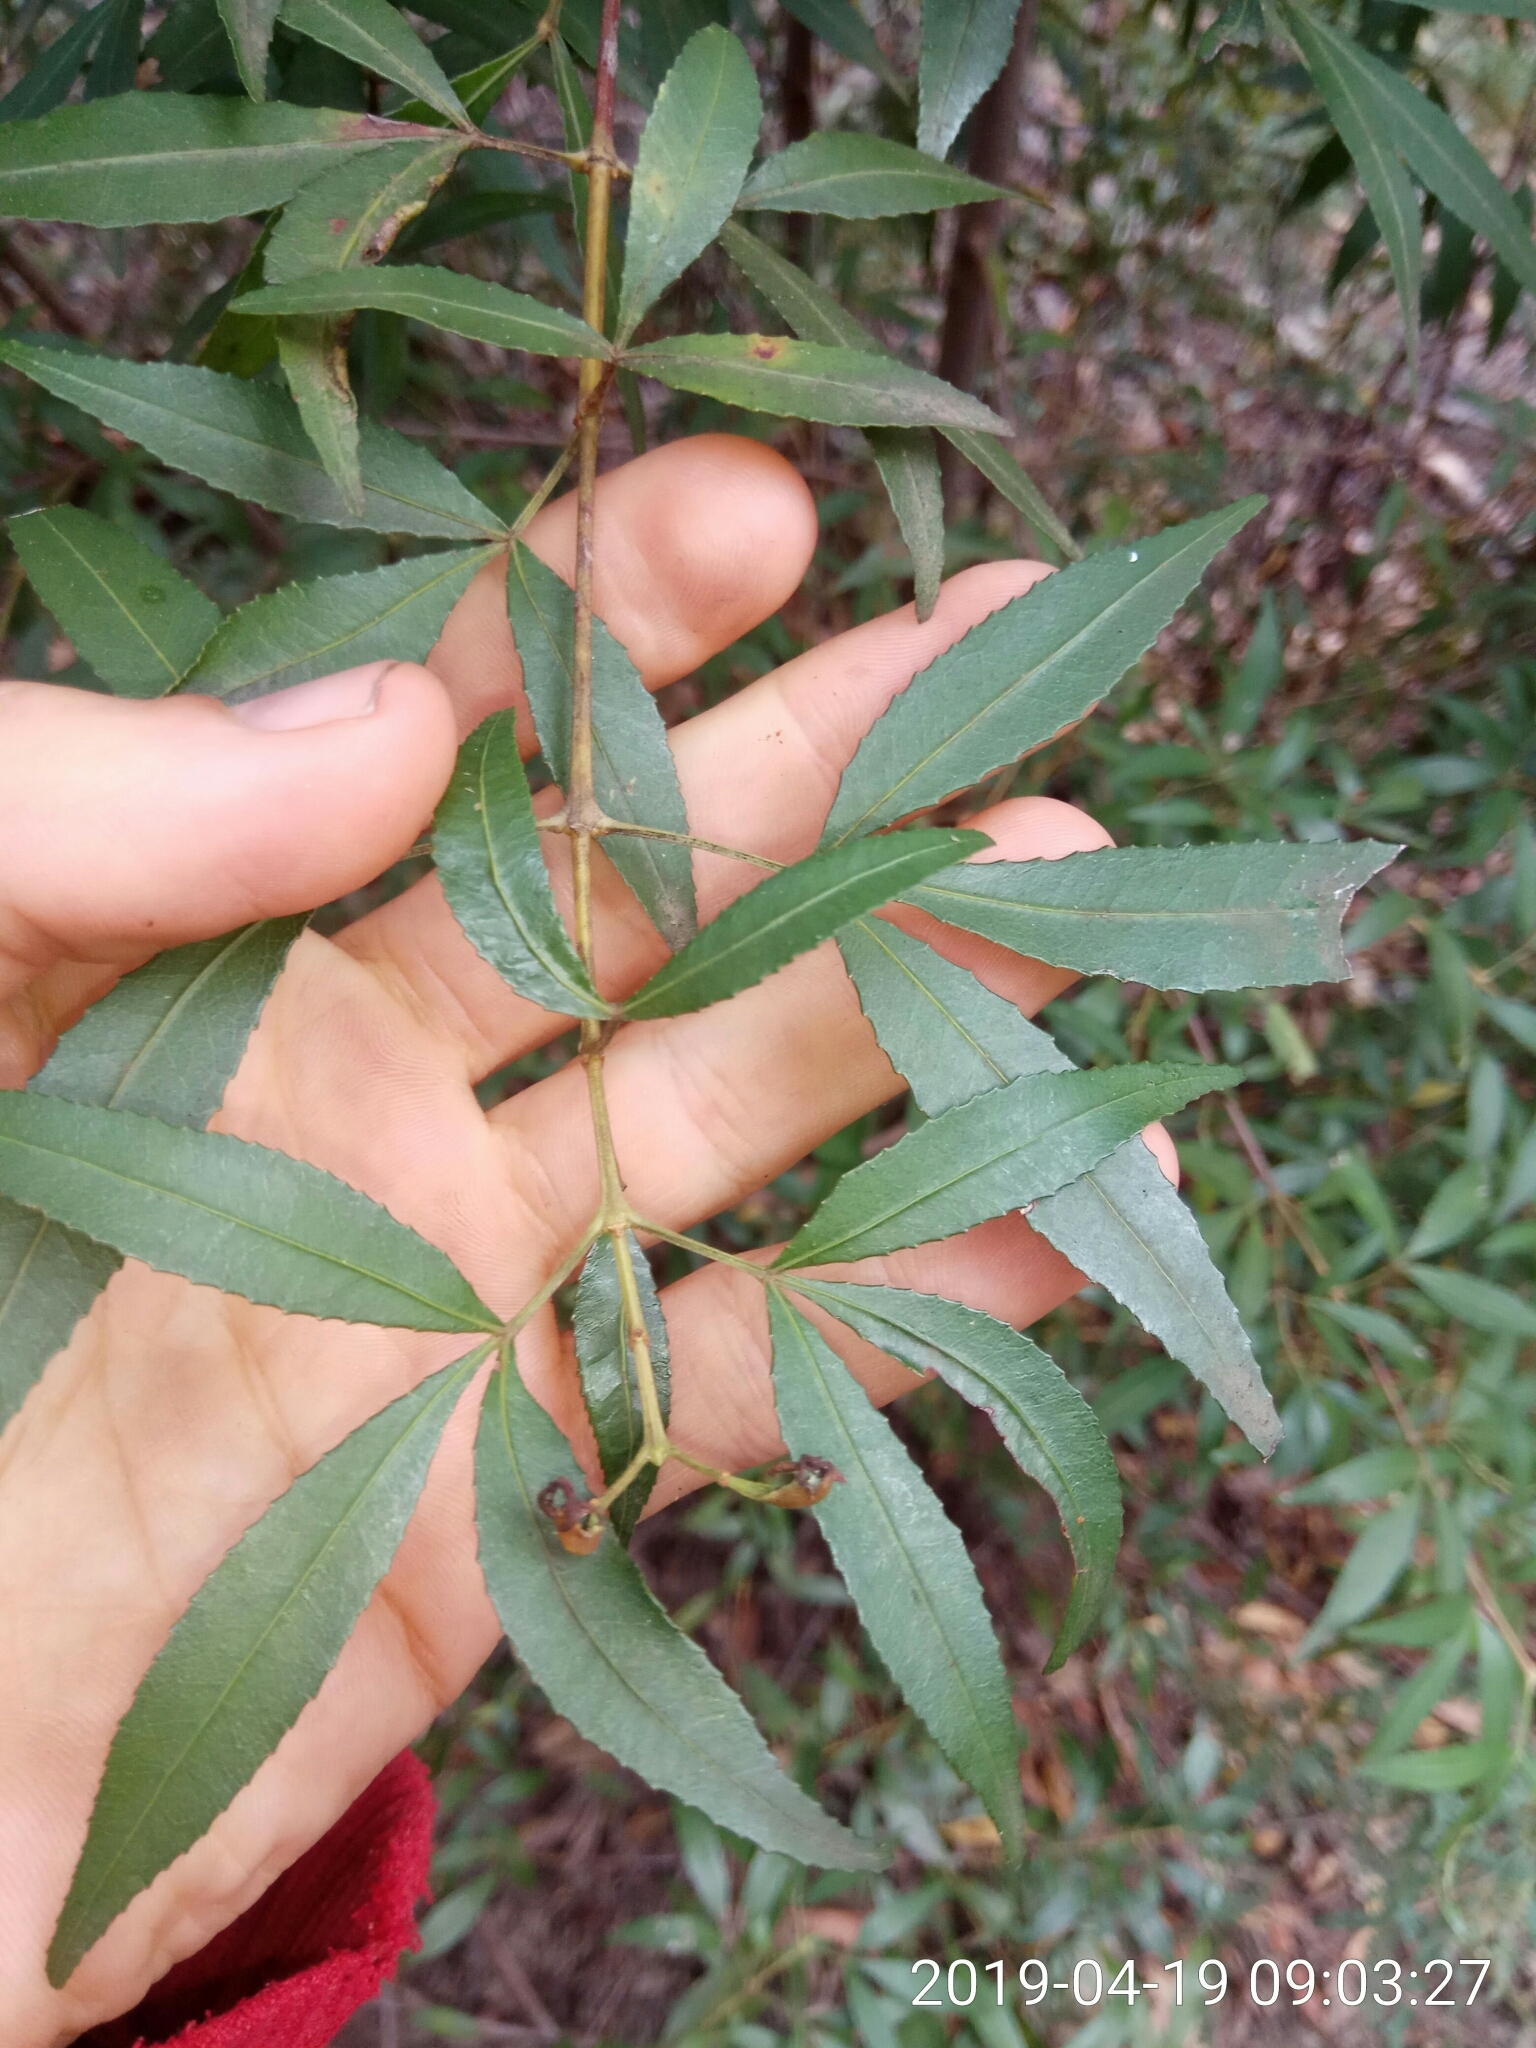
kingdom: Plantae
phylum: Tracheophyta
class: Magnoliopsida
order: Oxalidales
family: Cunoniaceae
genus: Ceratopetalum
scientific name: Ceratopetalum gummiferum
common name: Christmasbush
